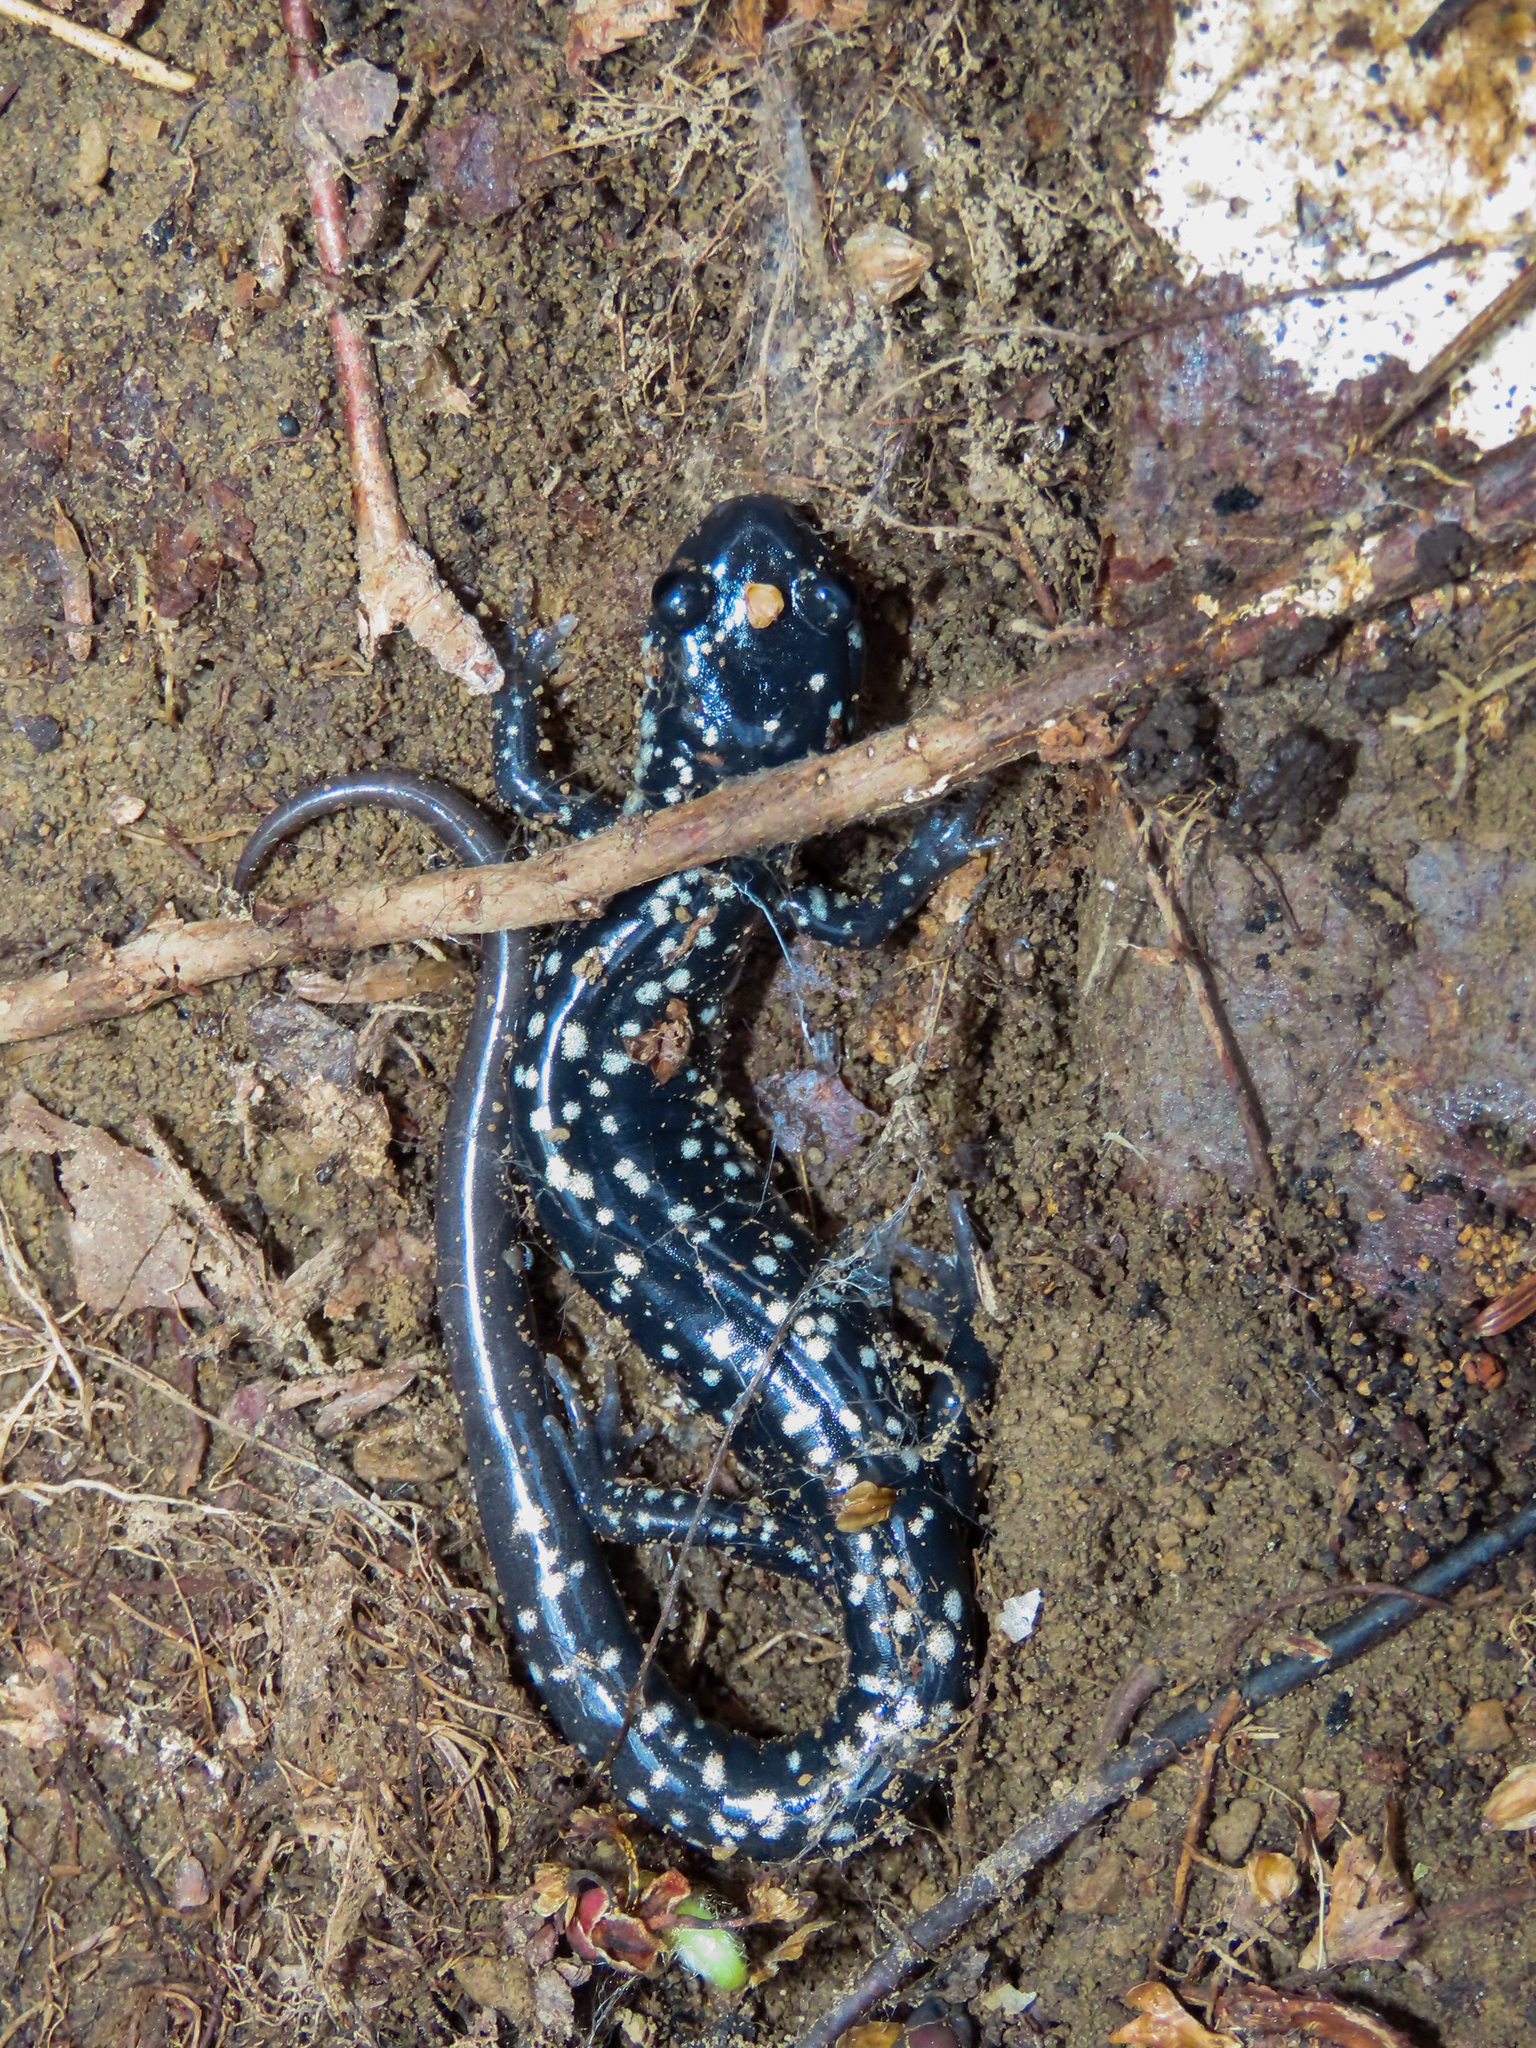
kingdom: Animalia
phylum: Chordata
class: Amphibia
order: Caudata
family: Plethodontidae
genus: Plethodon
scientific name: Plethodon glutinosus
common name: Northern slimy salamander
